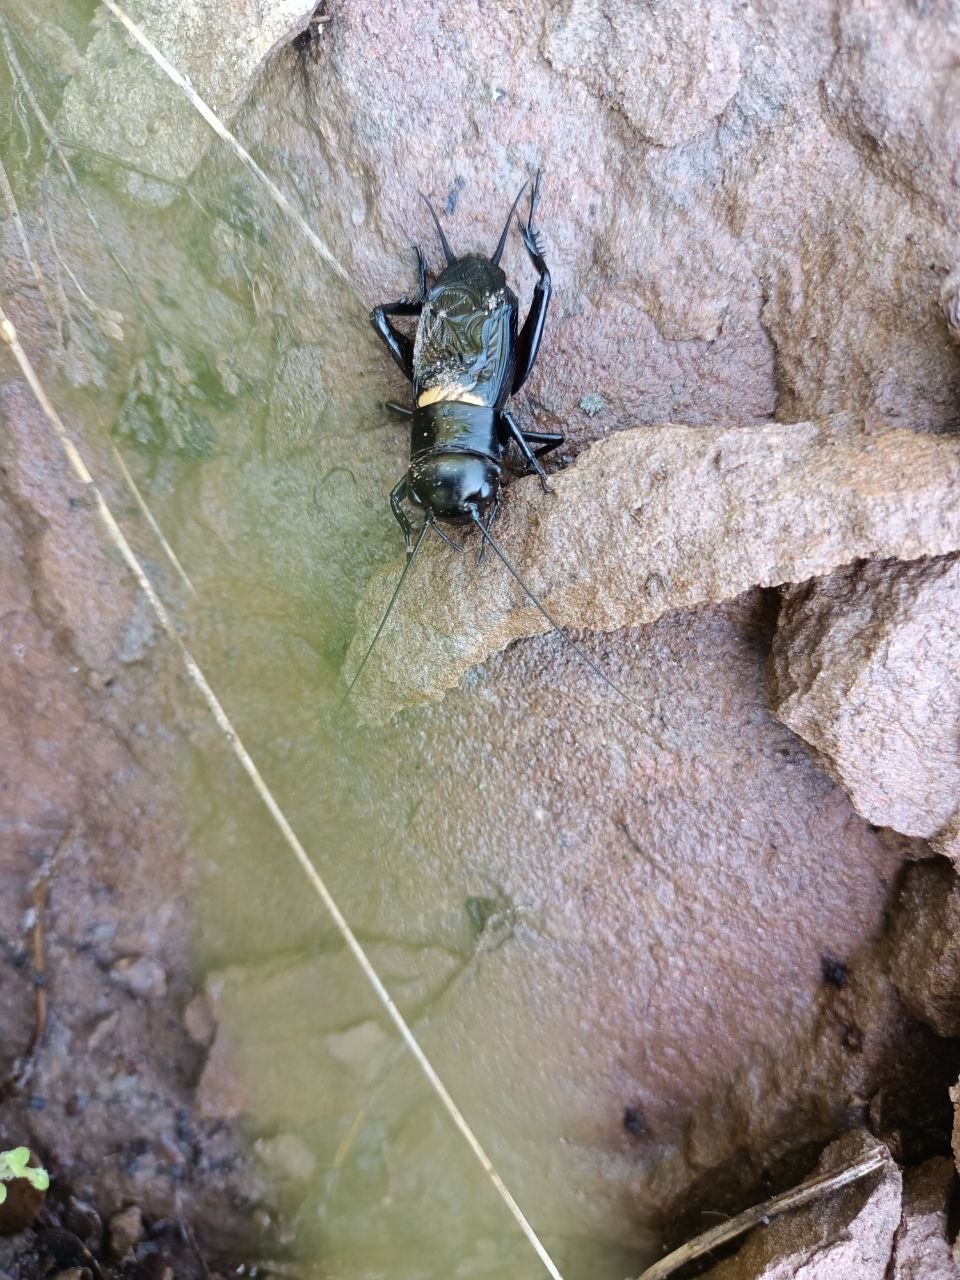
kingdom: Animalia
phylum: Arthropoda
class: Insecta
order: Orthoptera
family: Gryllidae
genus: Gryllus
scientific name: Gryllus campestris
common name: Field cricket
